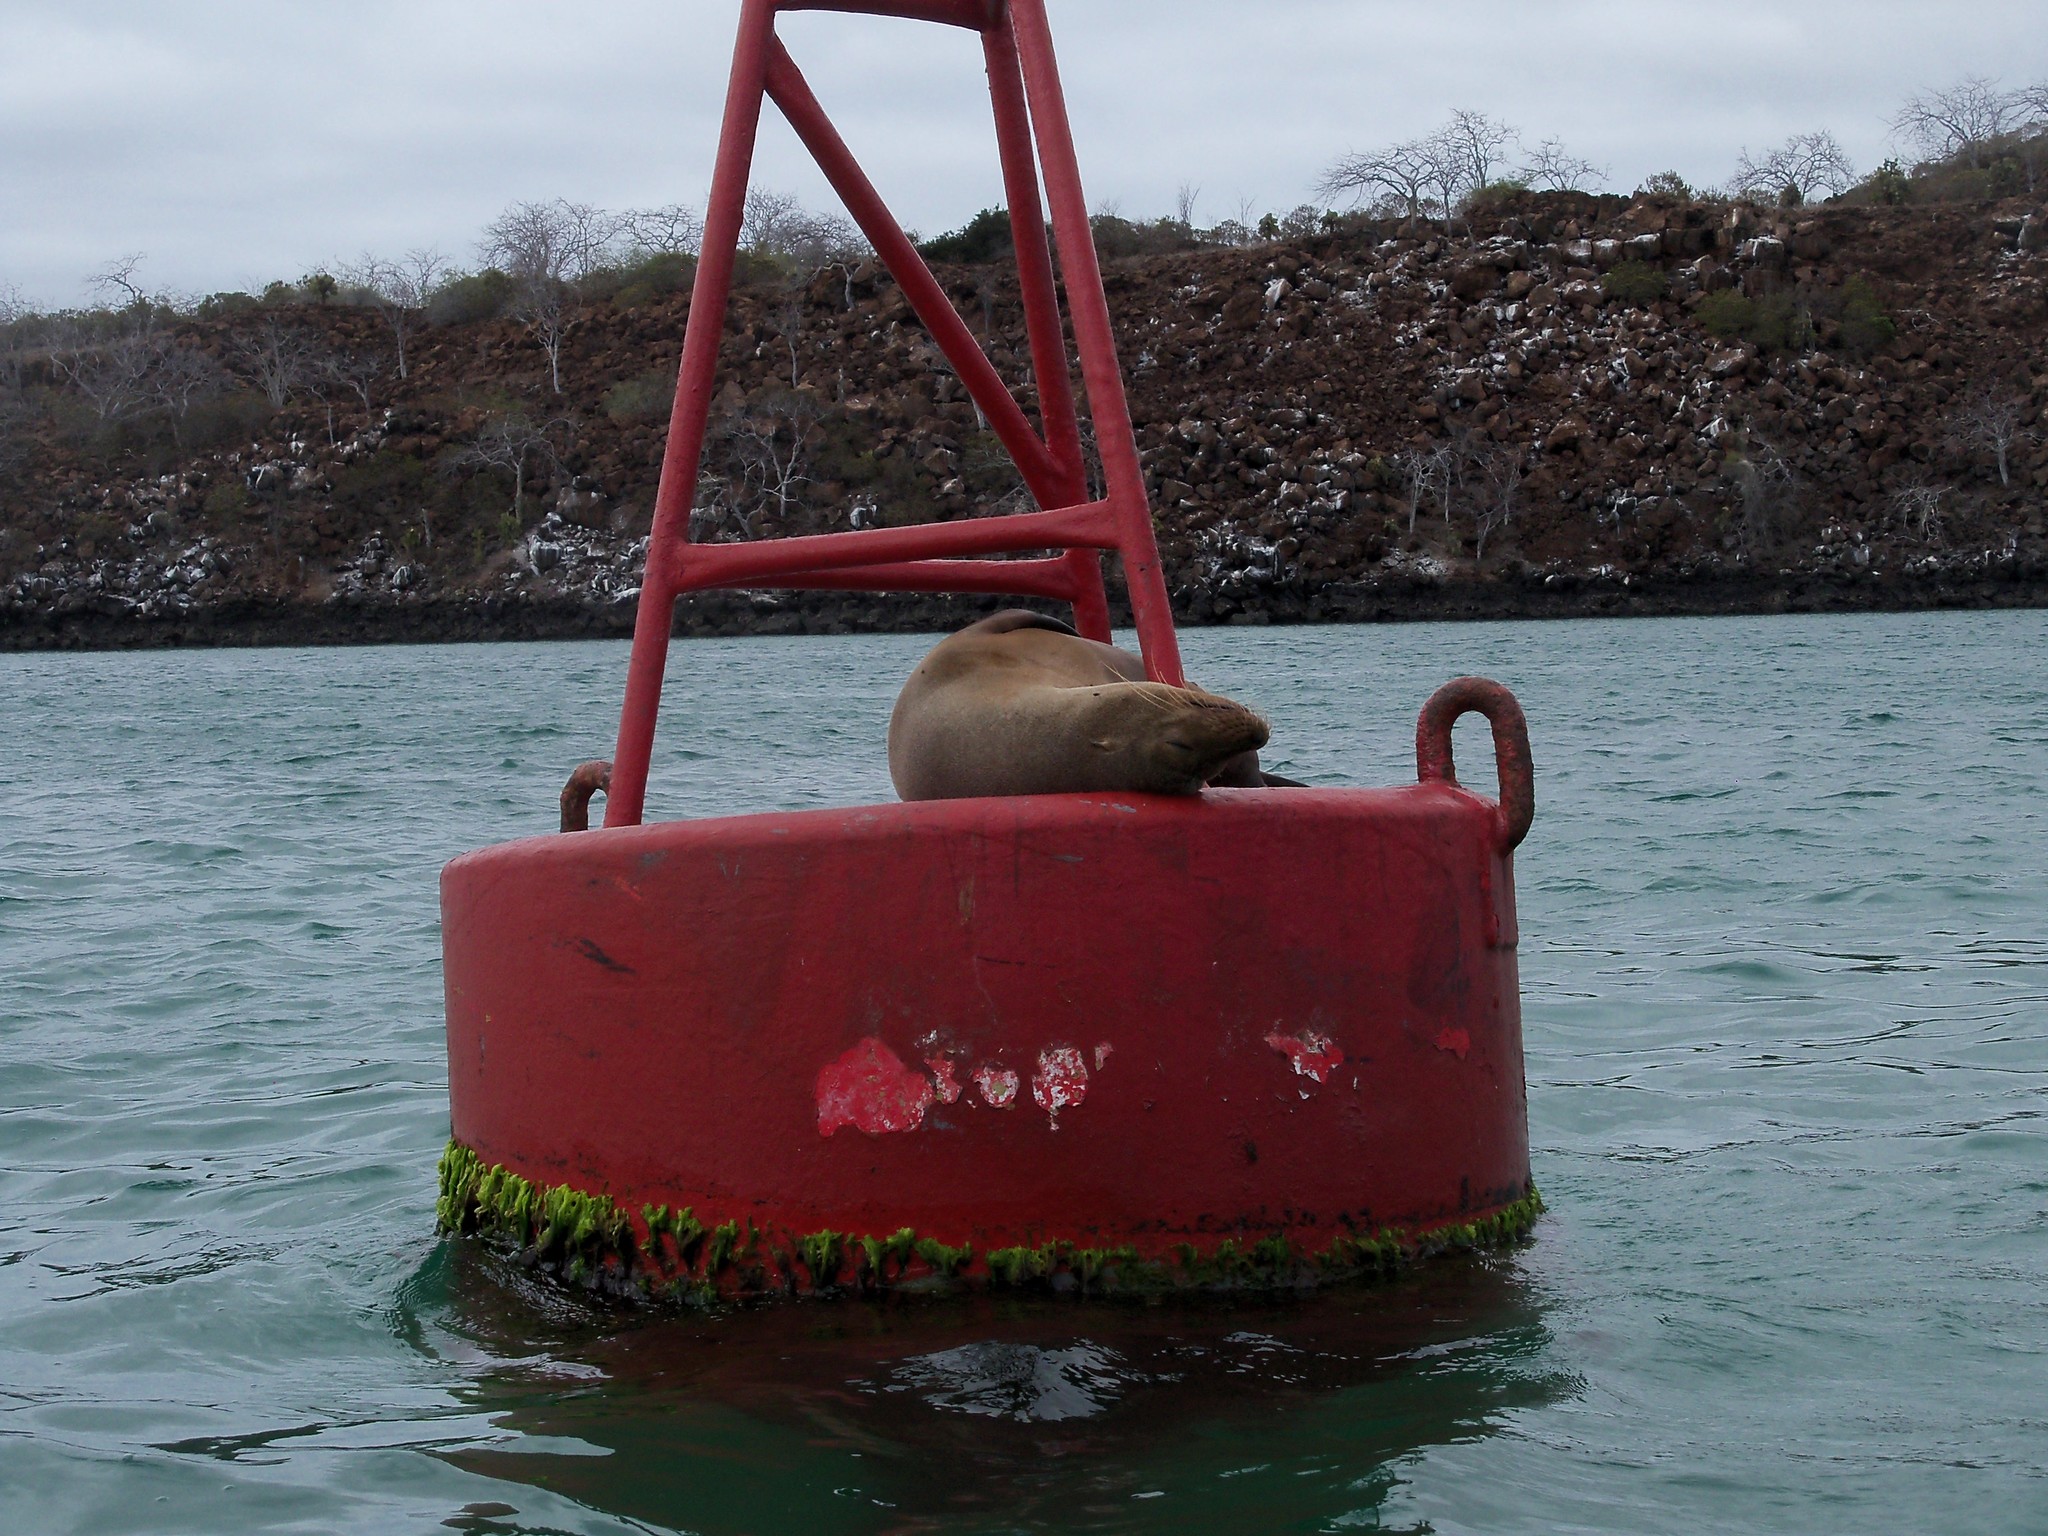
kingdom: Animalia
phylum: Chordata
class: Mammalia
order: Carnivora
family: Otariidae
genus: Zalophus
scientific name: Zalophus wollebaeki
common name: Galapagos sea lion
